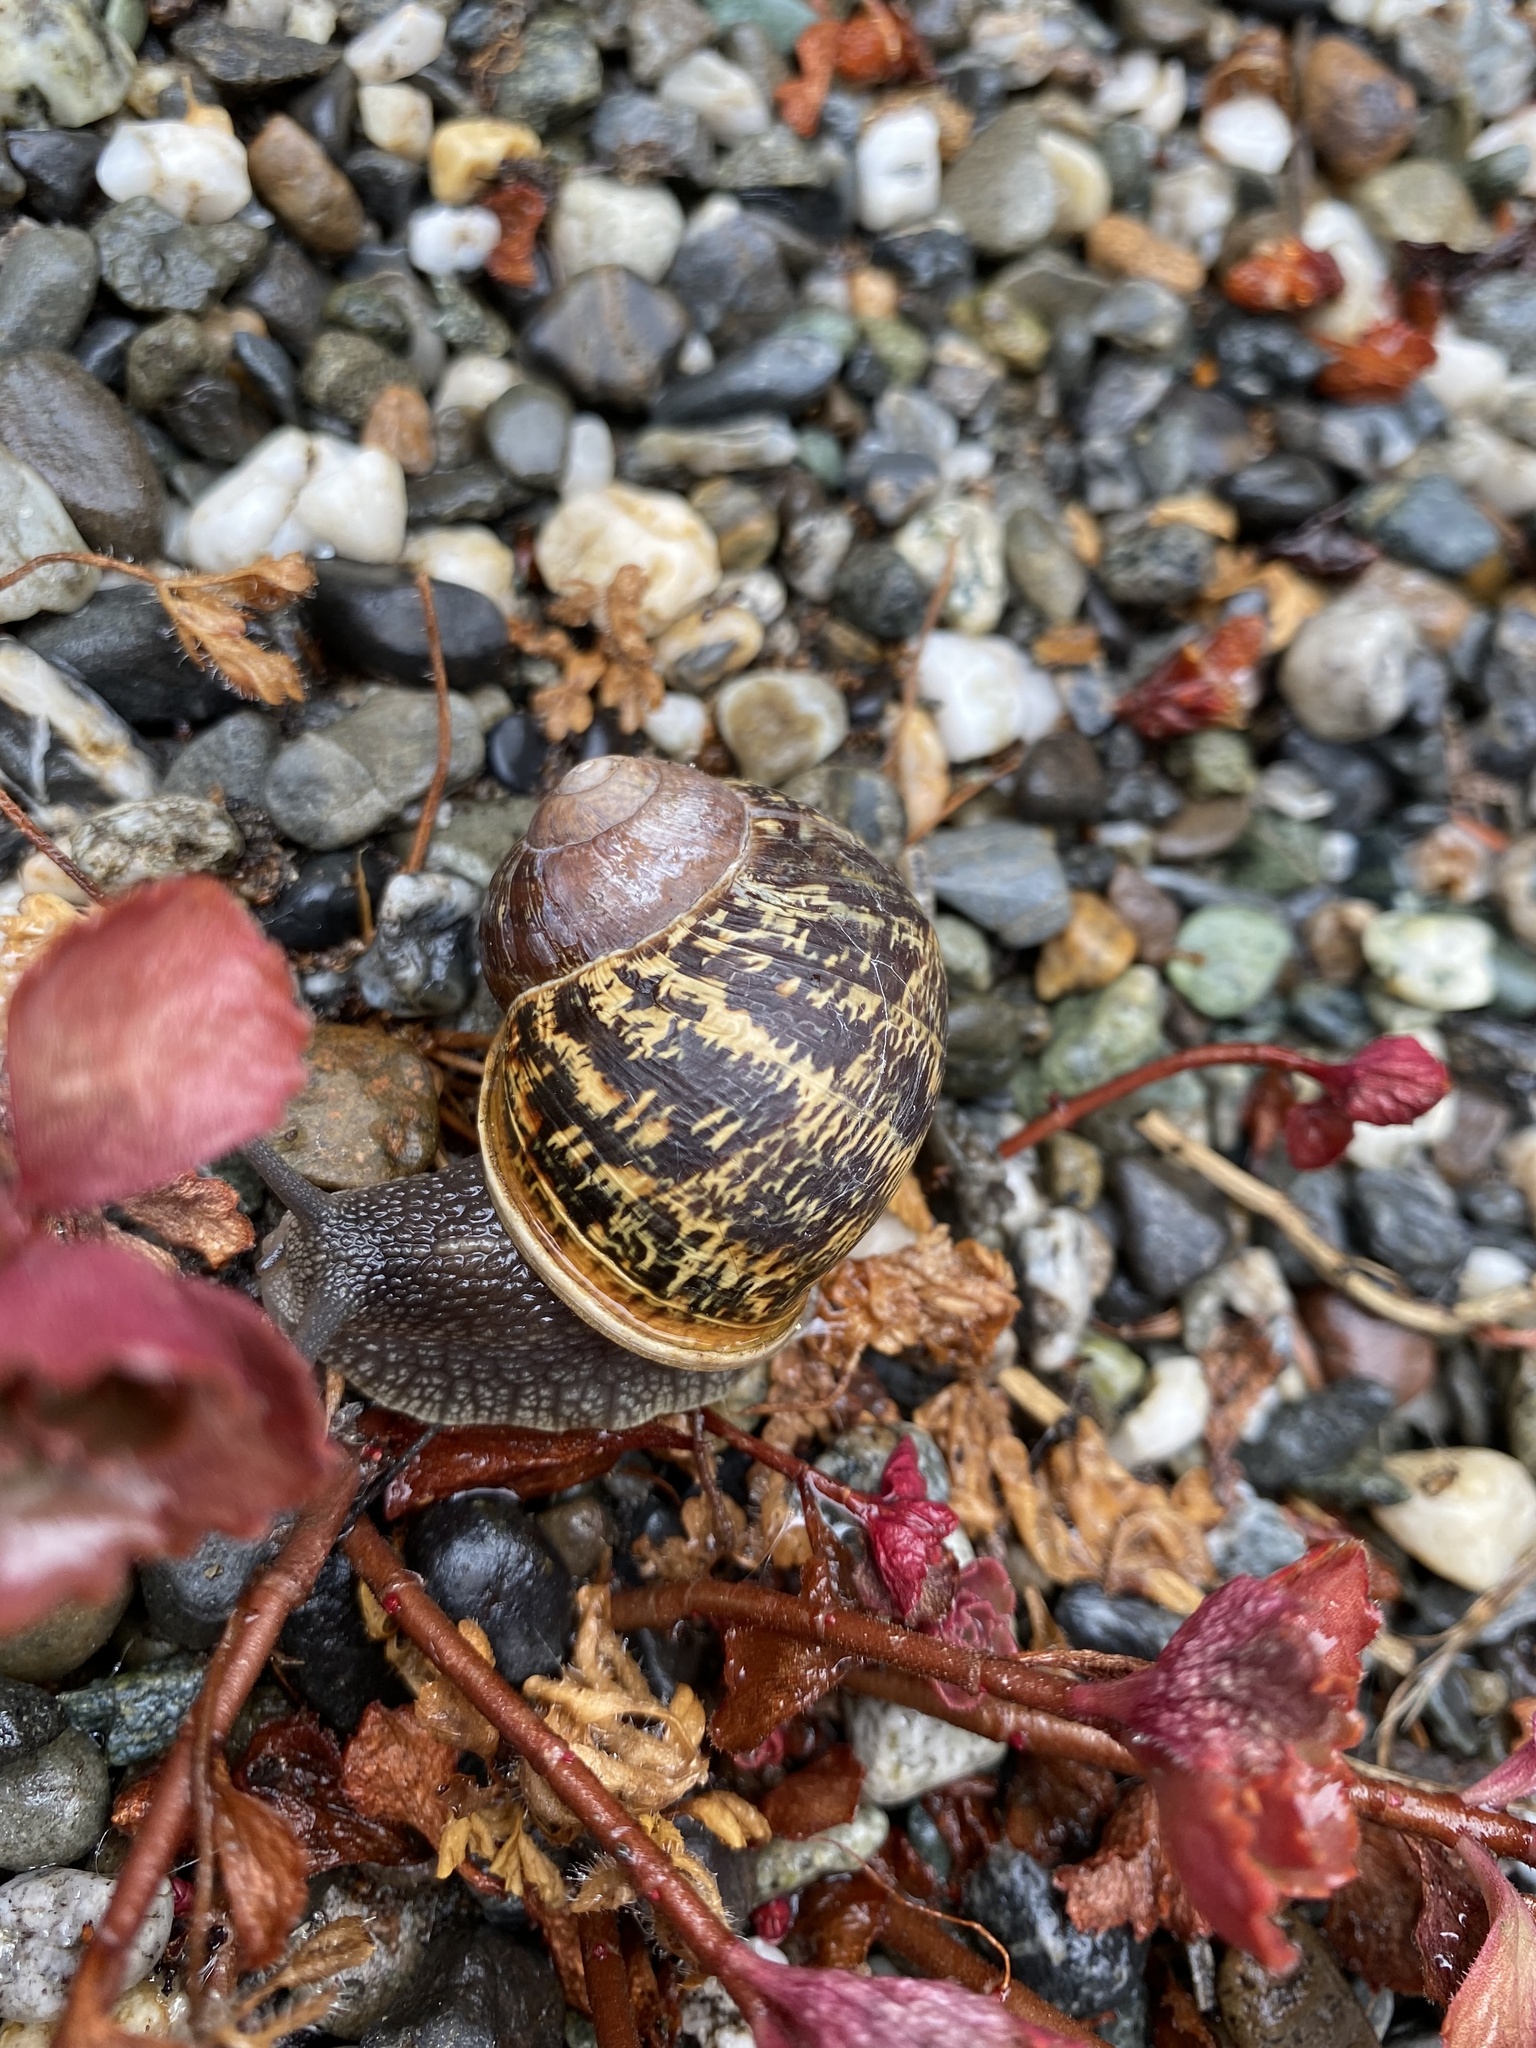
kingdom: Animalia
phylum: Mollusca
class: Gastropoda
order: Stylommatophora
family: Helicidae
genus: Cornu
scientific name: Cornu aspersum
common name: Brown garden snail
